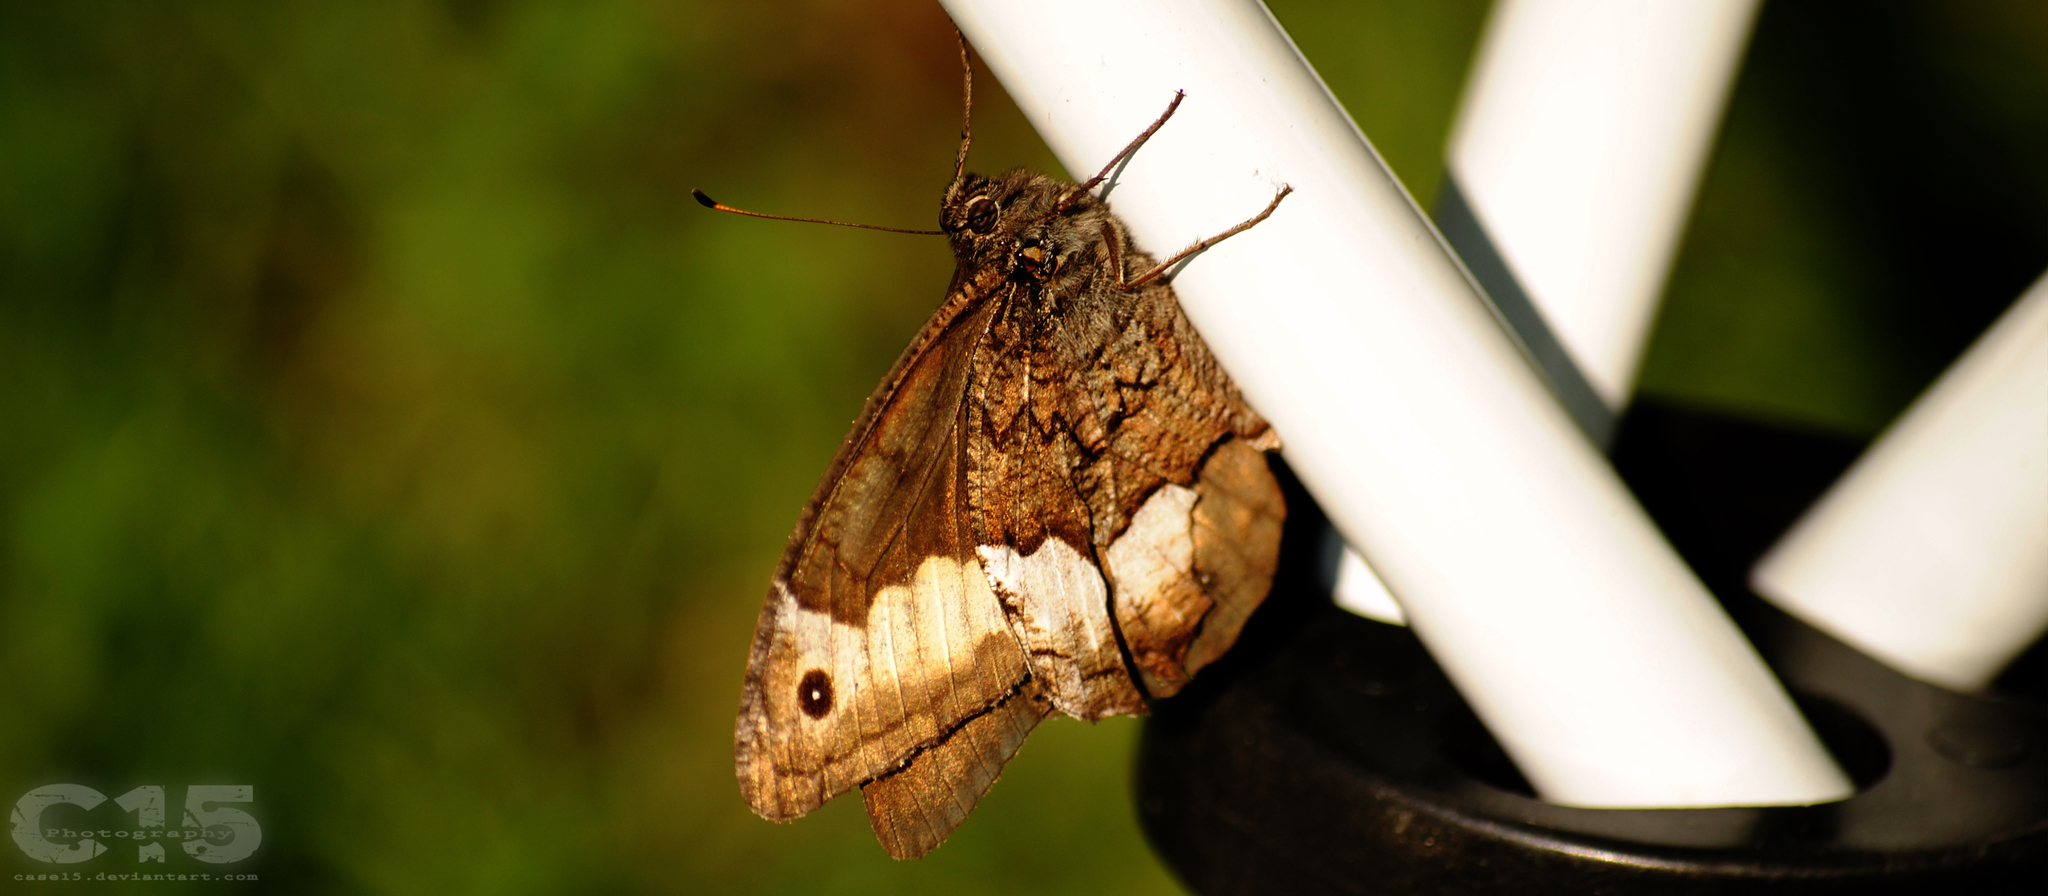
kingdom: Animalia
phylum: Arthropoda
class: Insecta
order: Lepidoptera
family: Nymphalidae
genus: Hipparchia
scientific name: Hipparchia fagi
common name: Woodland grayling
